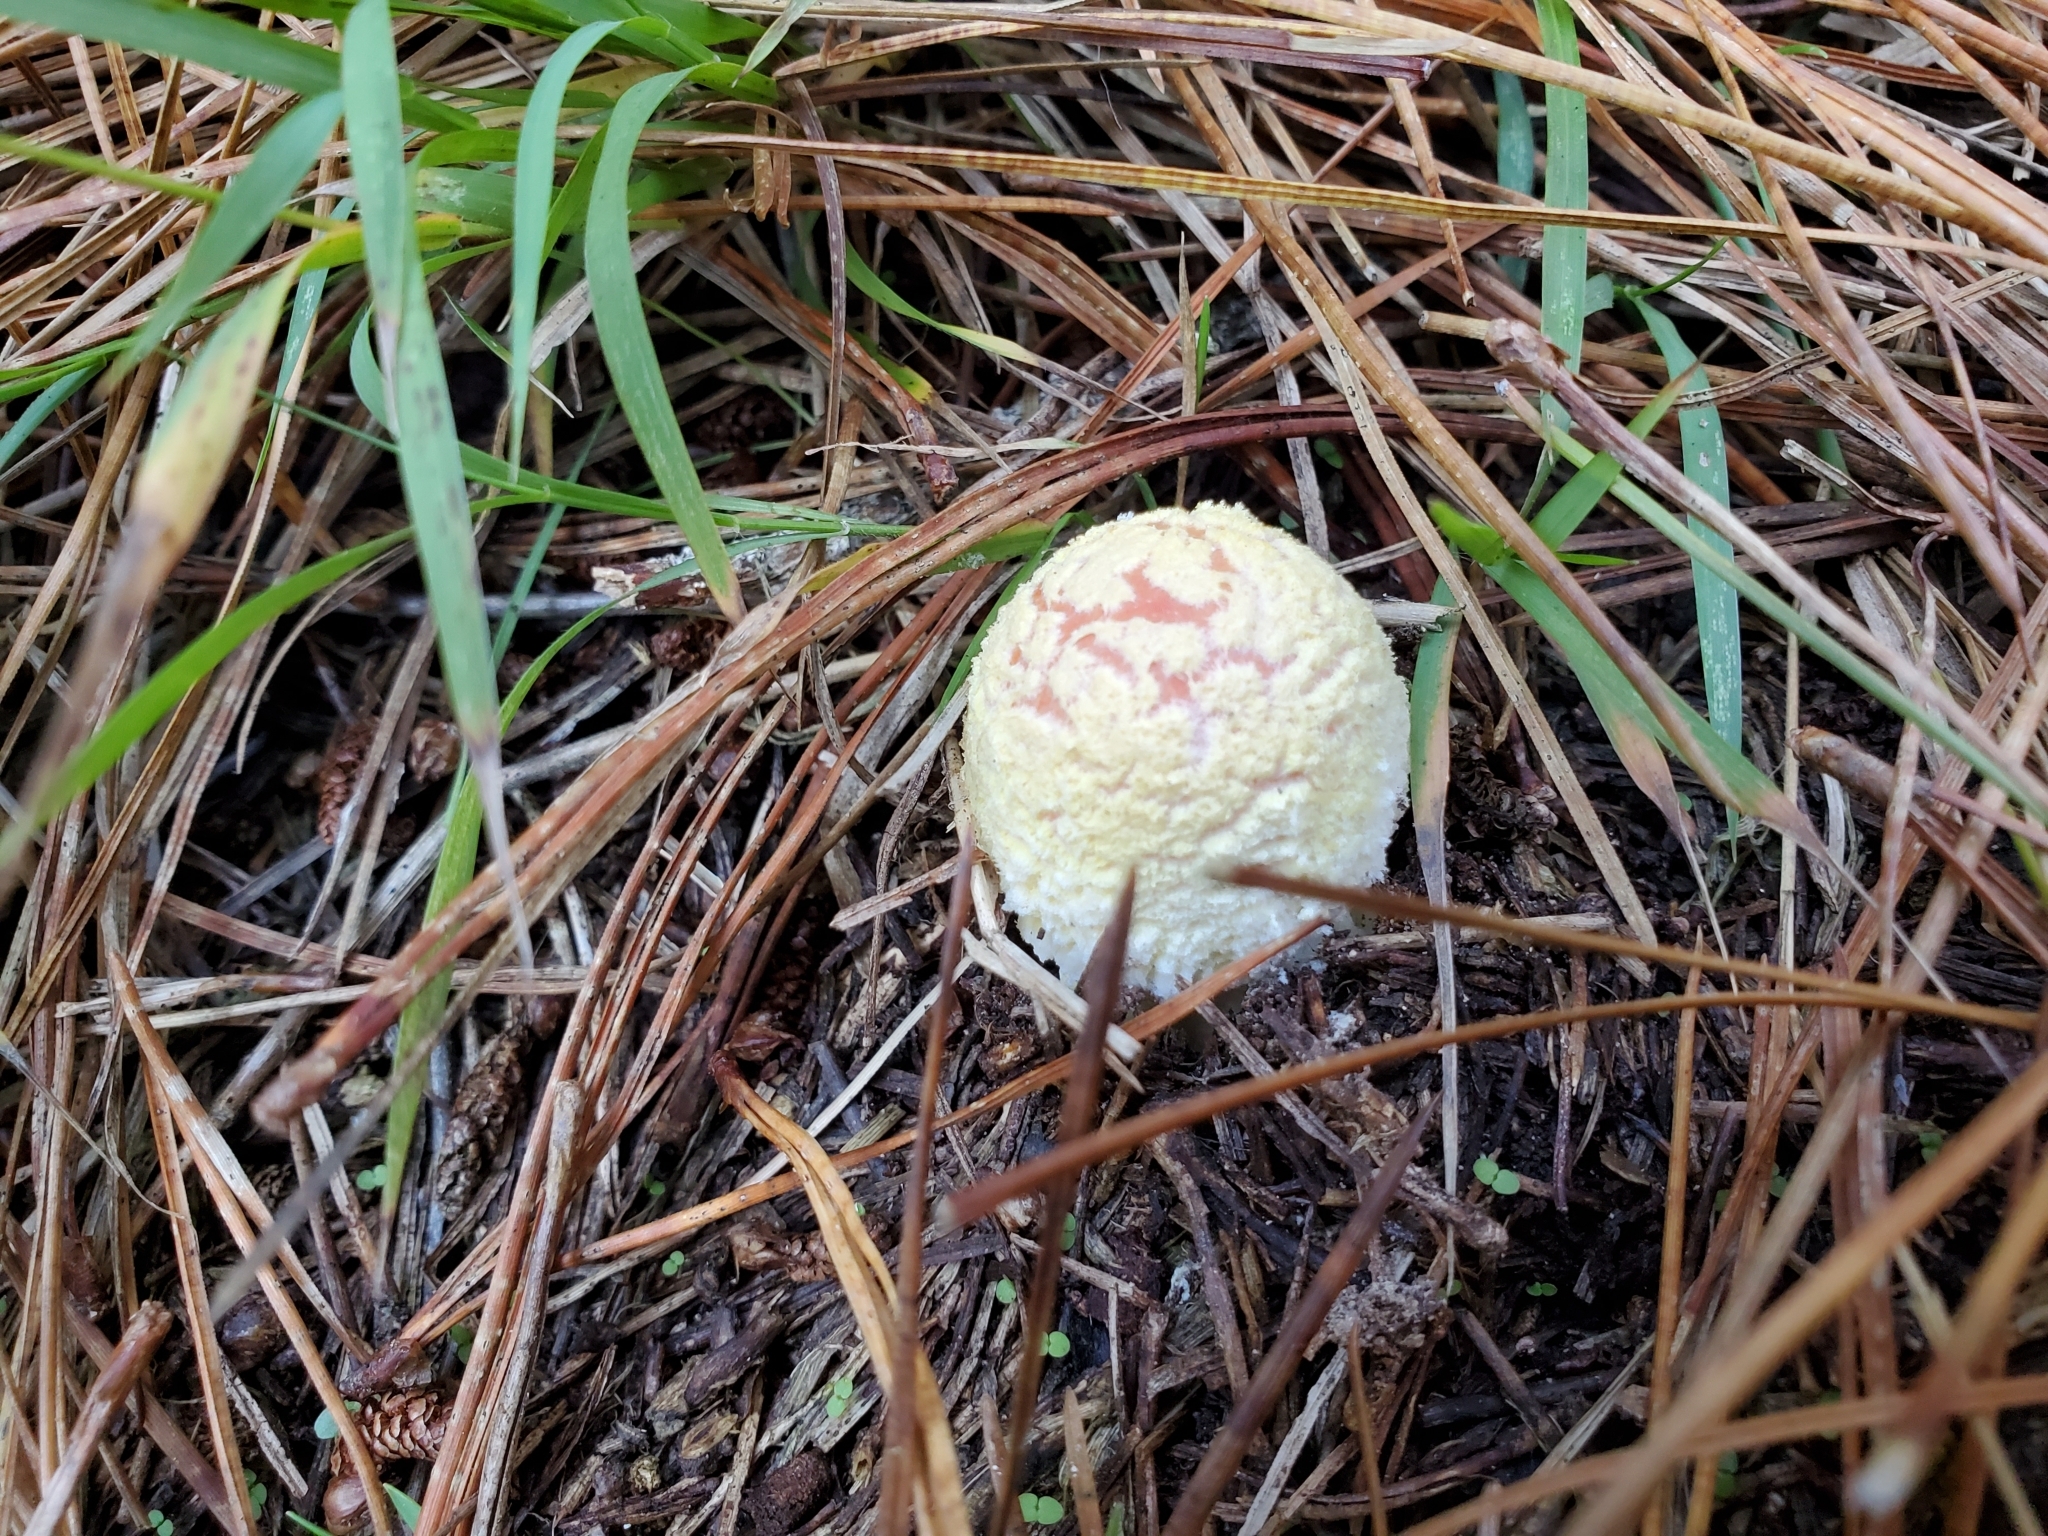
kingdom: Fungi
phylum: Basidiomycota
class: Agaricomycetes
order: Agaricales
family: Amanitaceae
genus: Amanita
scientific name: Amanita muscaria
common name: Fly agaric
